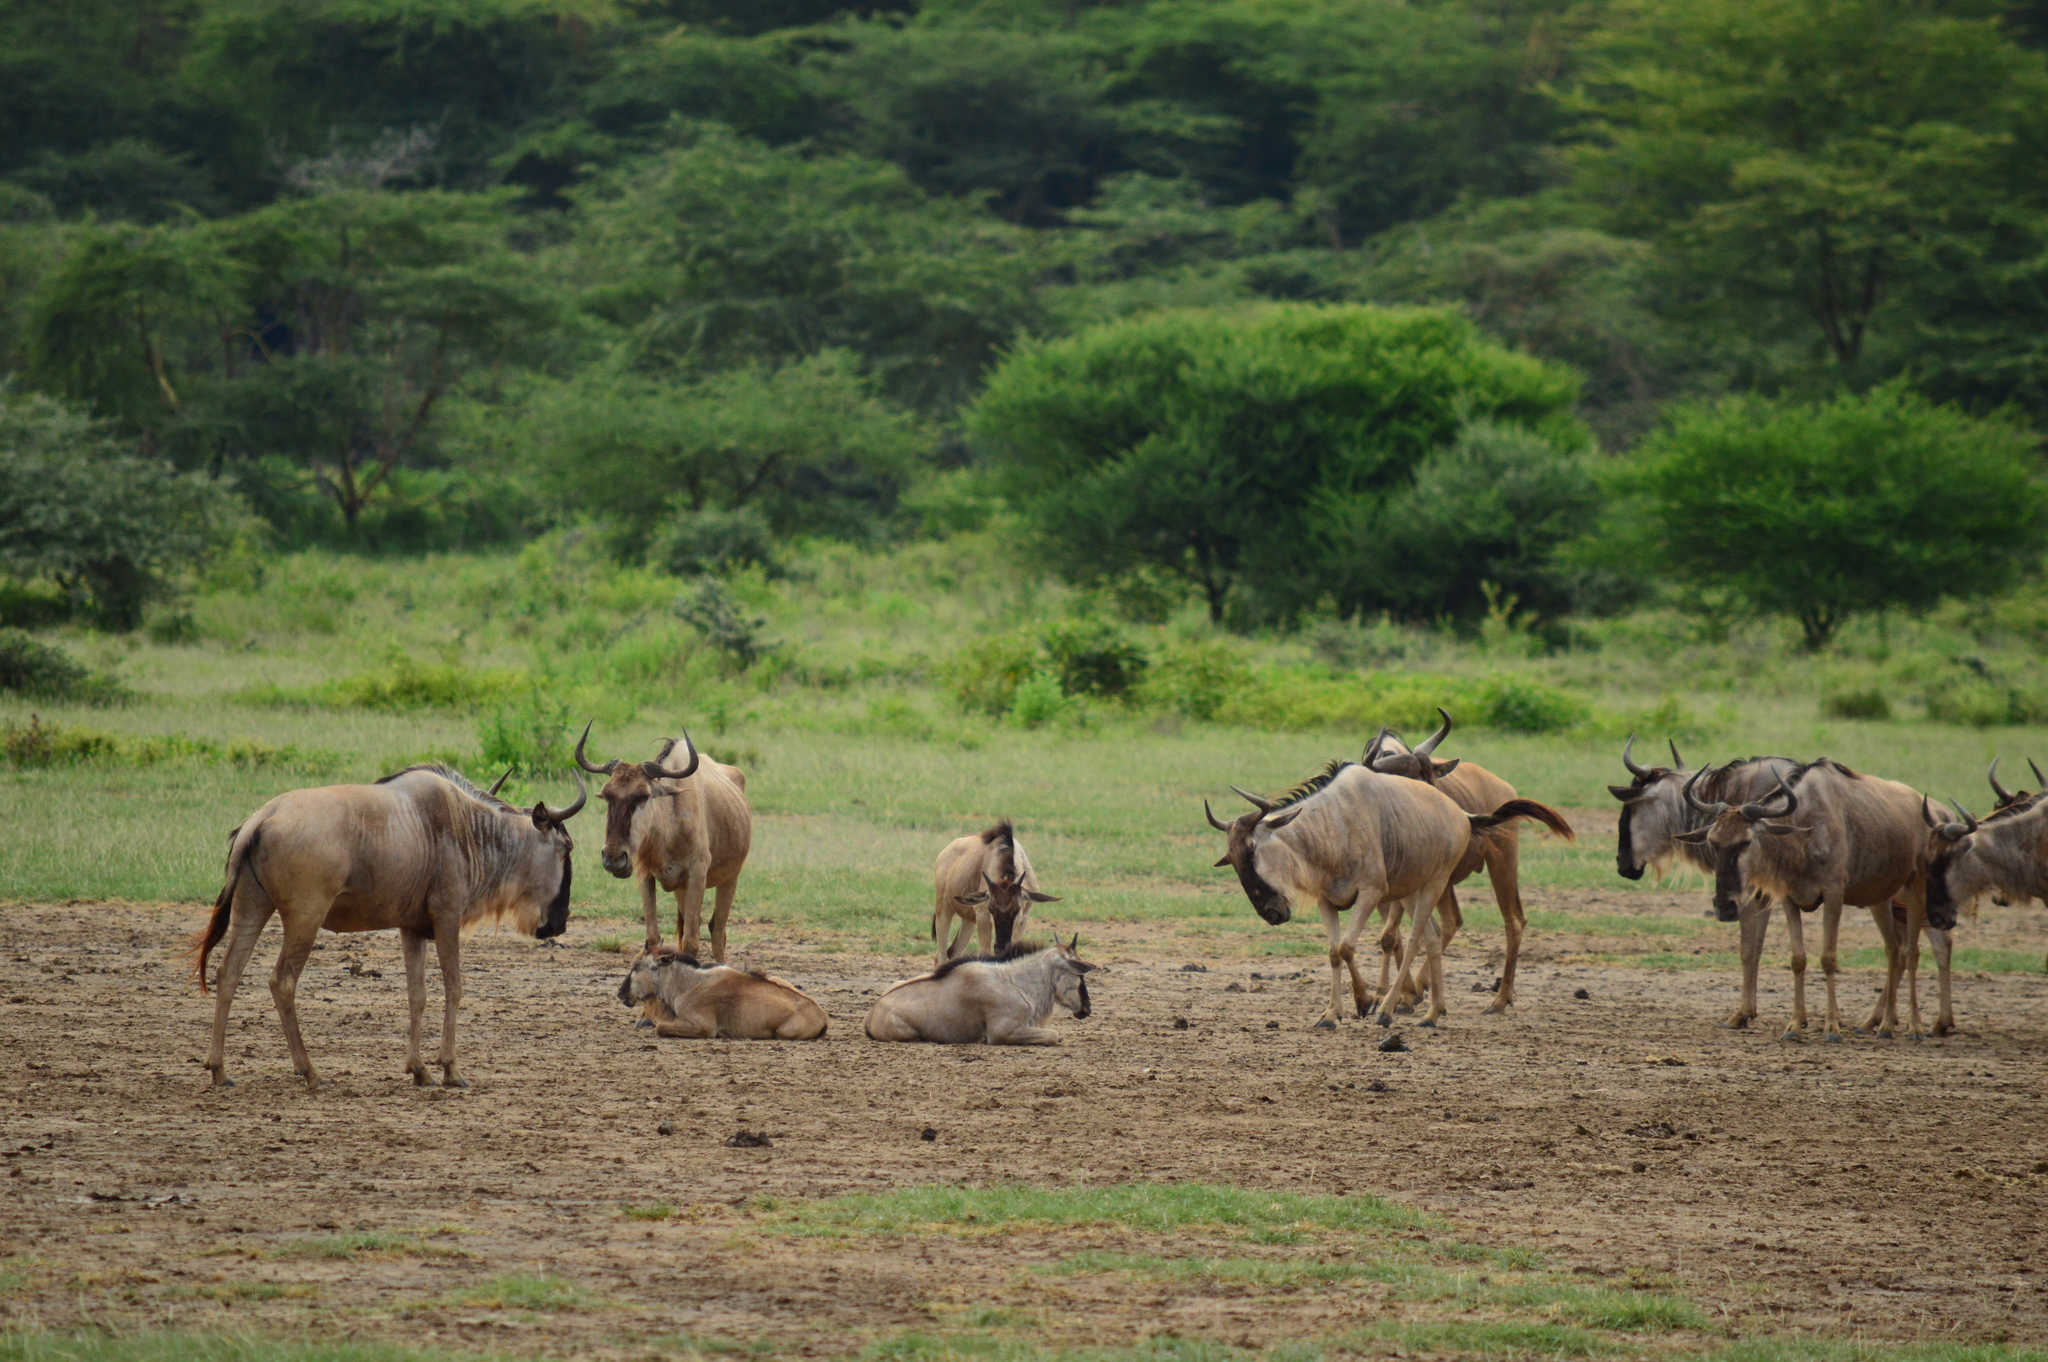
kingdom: Animalia
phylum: Chordata
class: Mammalia
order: Artiodactyla
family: Bovidae
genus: Connochaetes
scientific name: Connochaetes taurinus
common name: Blue wildebeest
